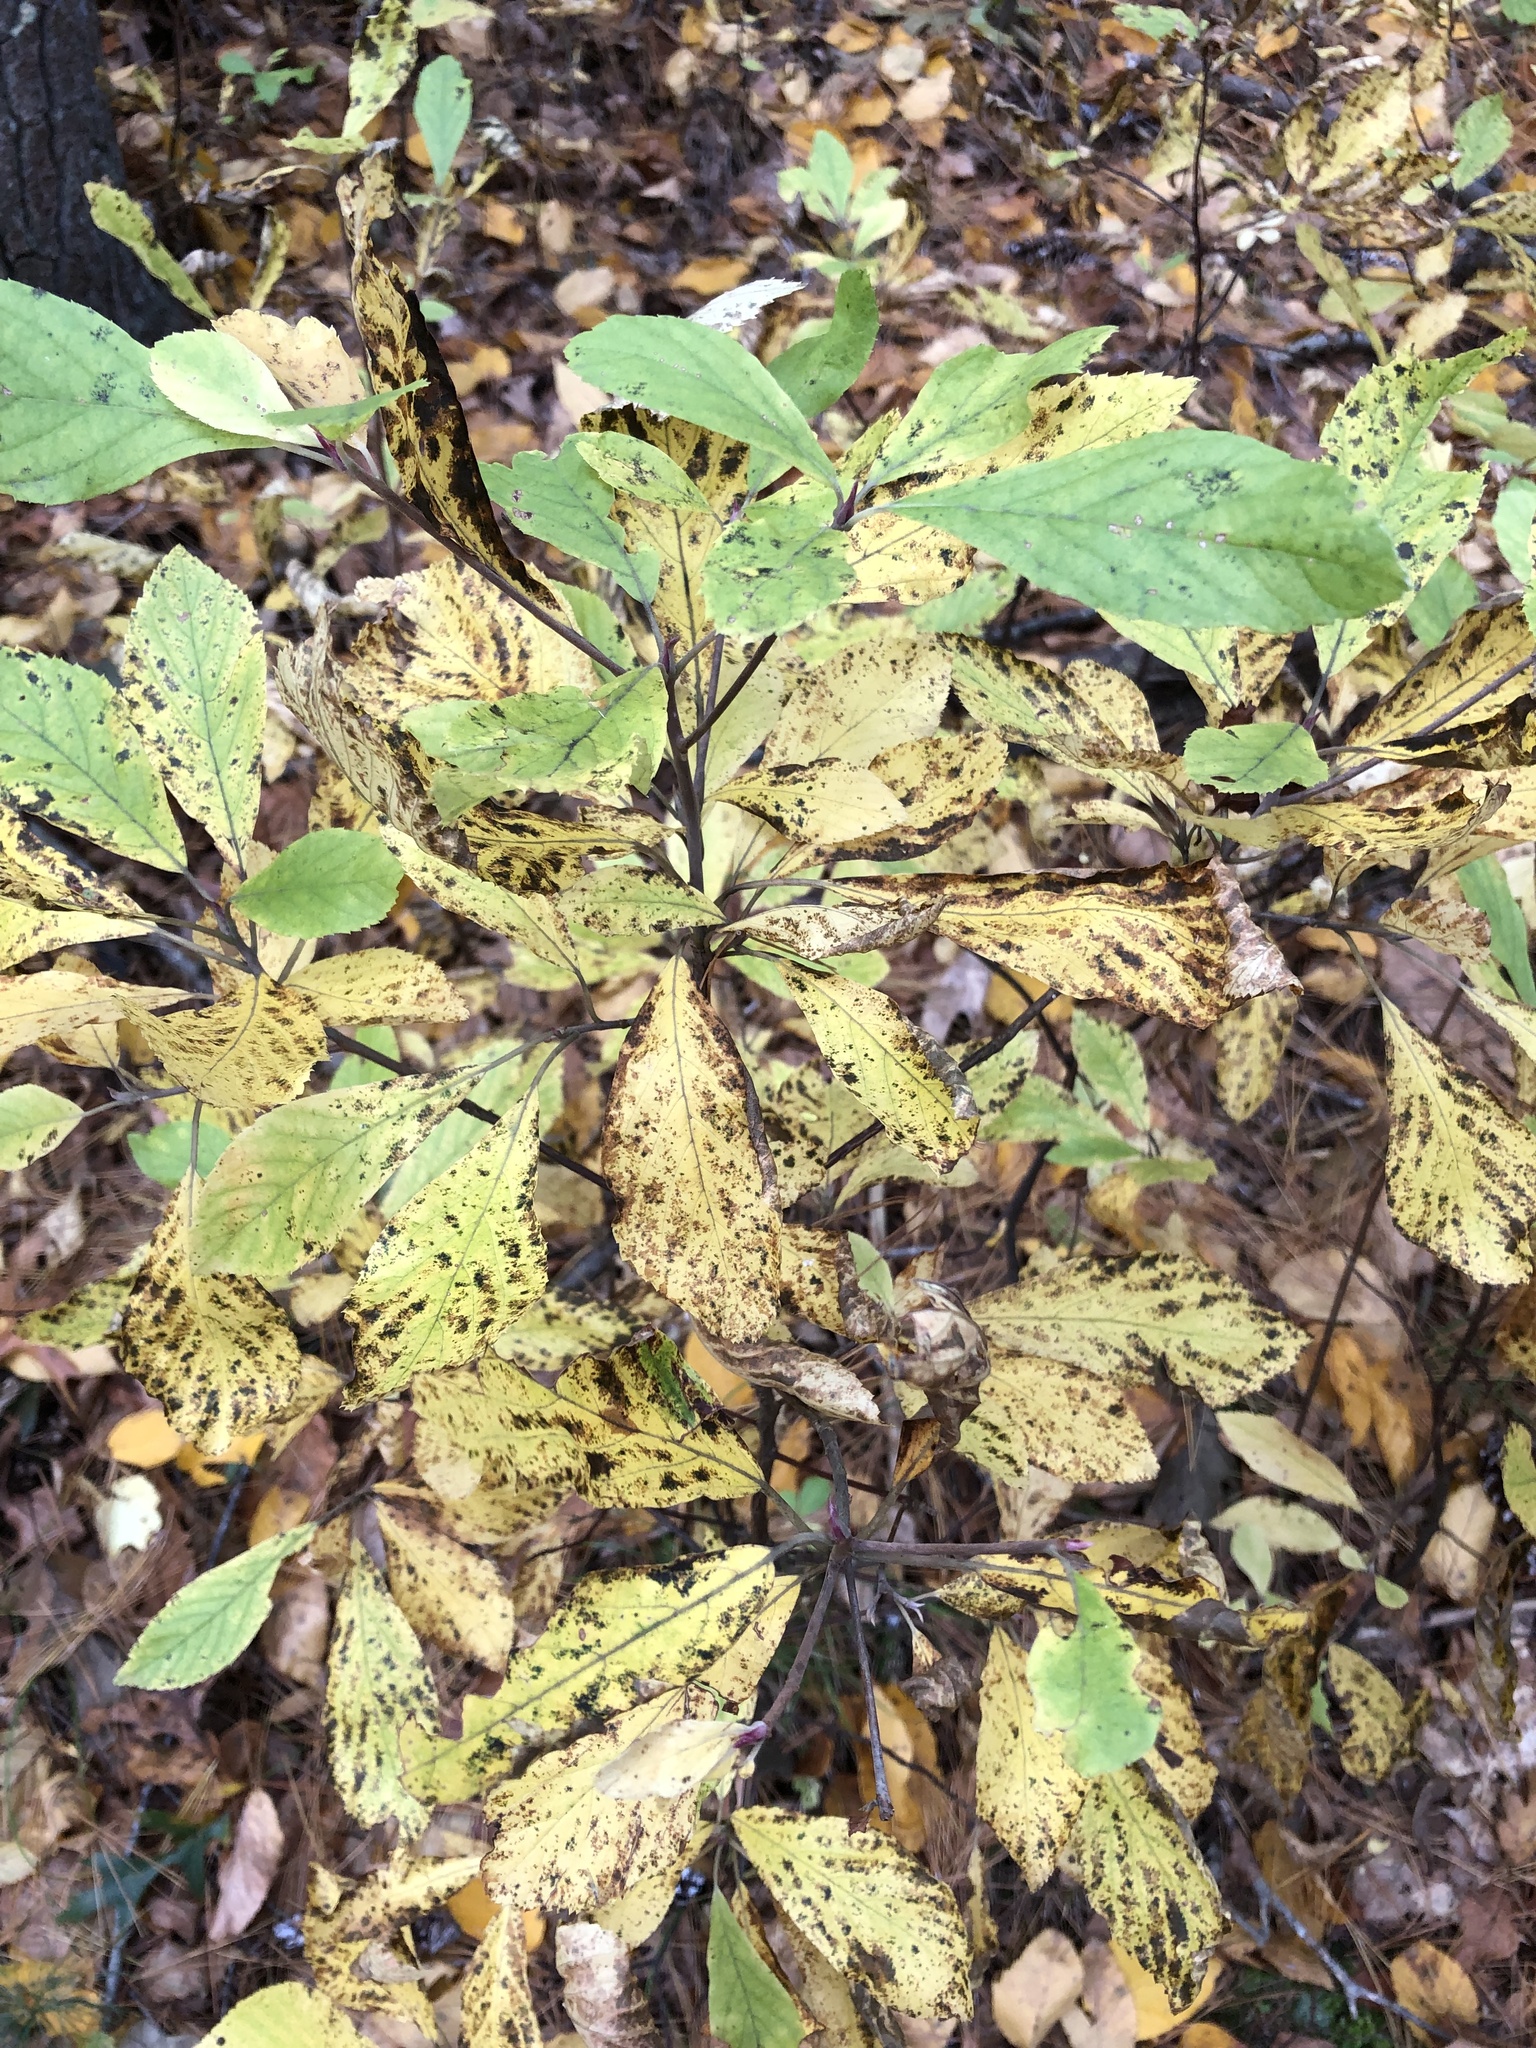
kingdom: Plantae
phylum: Tracheophyta
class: Magnoliopsida
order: Ericales
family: Clethraceae
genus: Clethra
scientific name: Clethra alnifolia
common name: Sweet pepperbush
